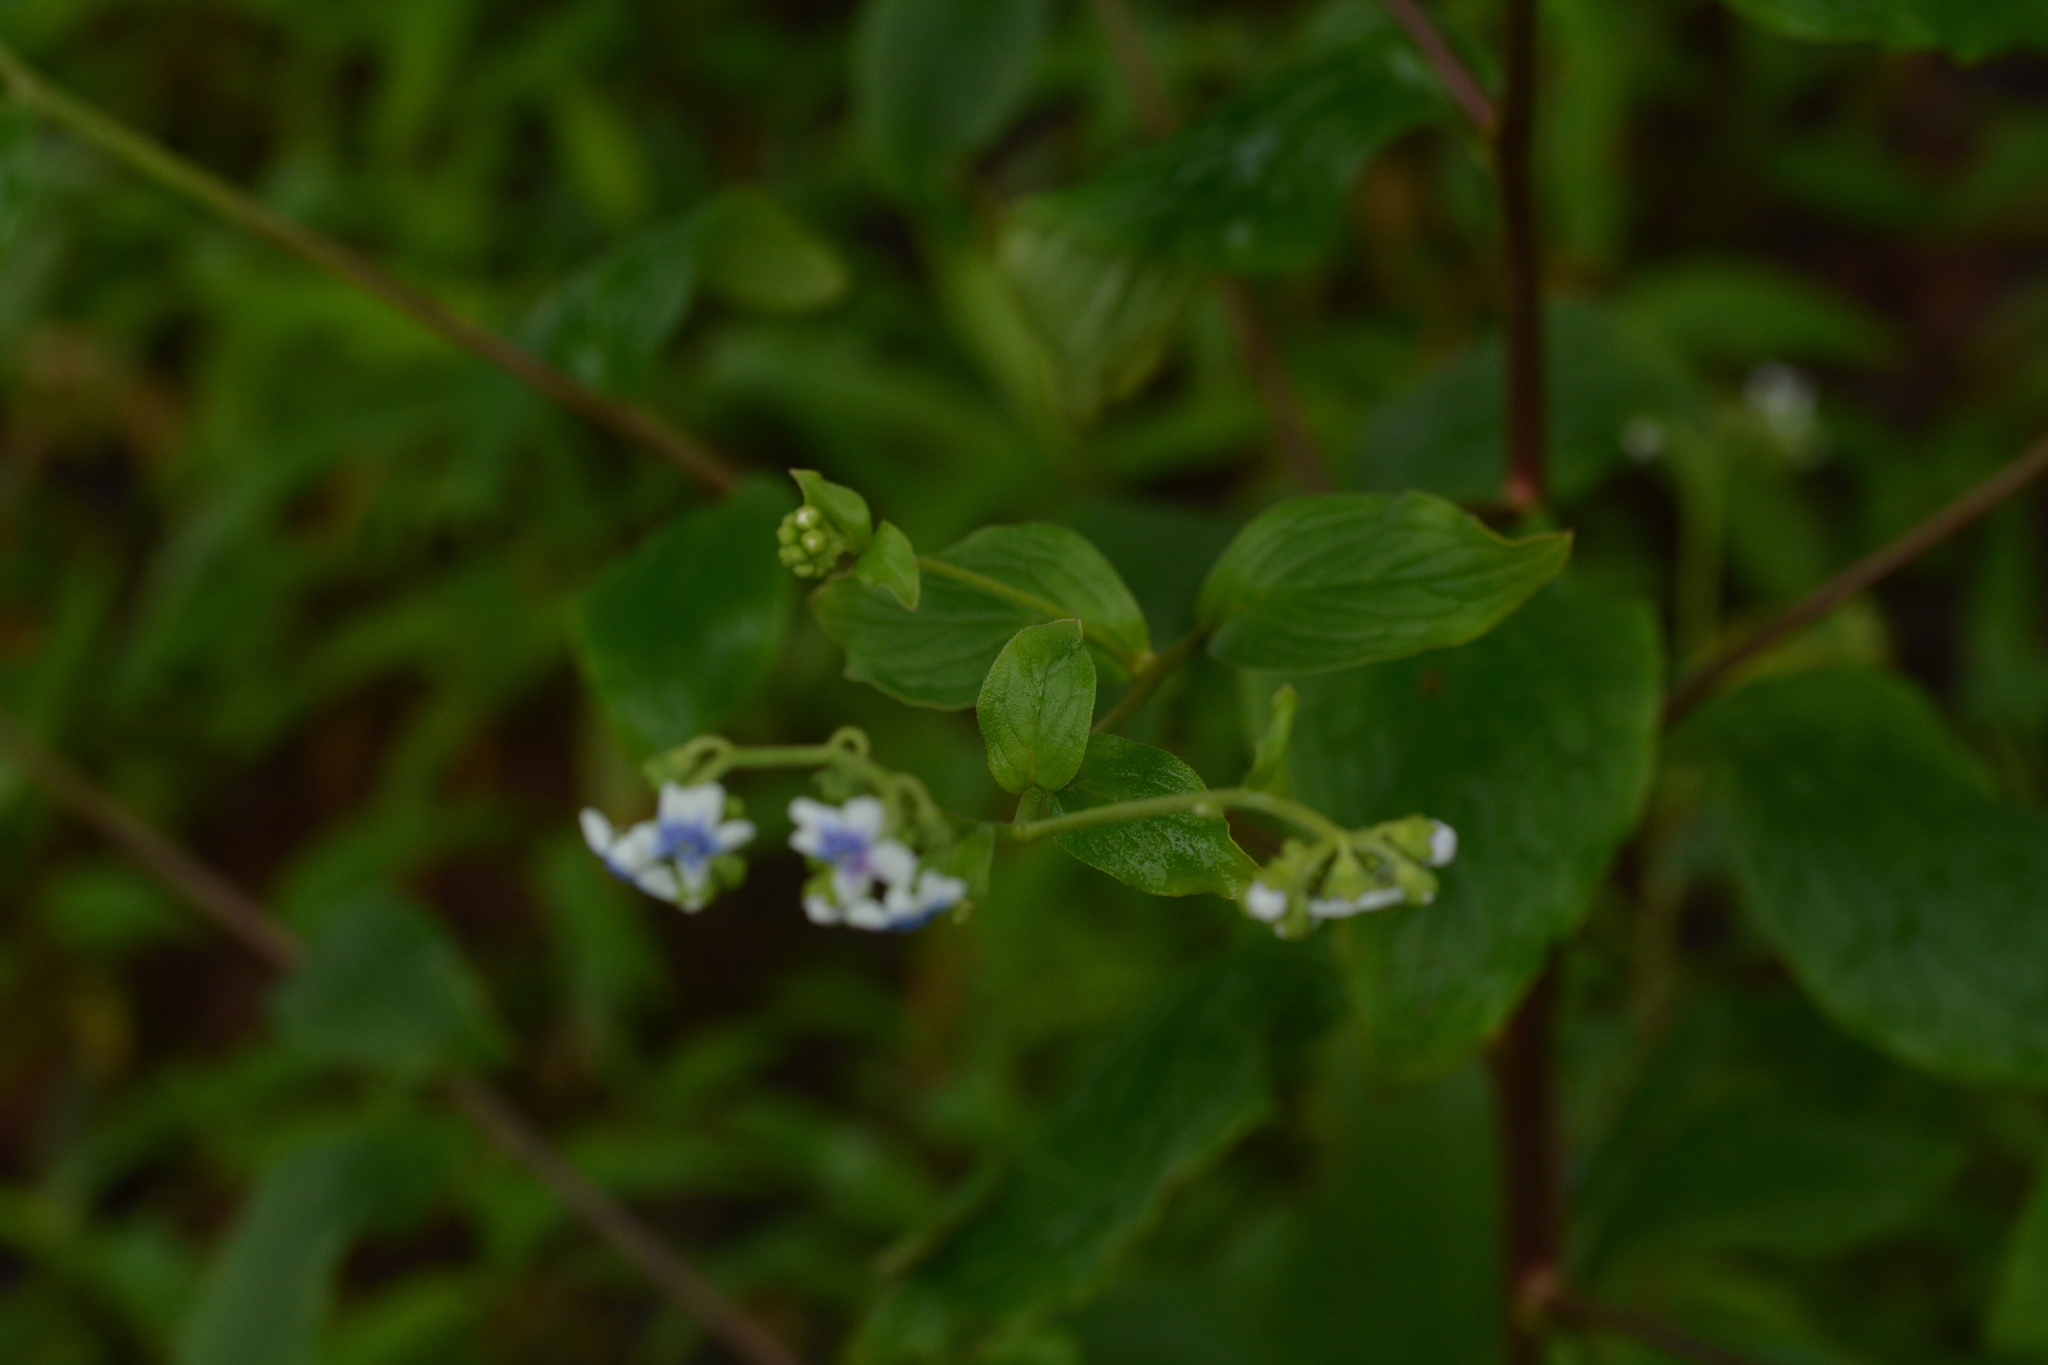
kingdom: Plantae
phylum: Tracheophyta
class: Magnoliopsida
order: Boraginales
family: Boraginaceae
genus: Paracaryum
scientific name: Paracaryum coelestinum
